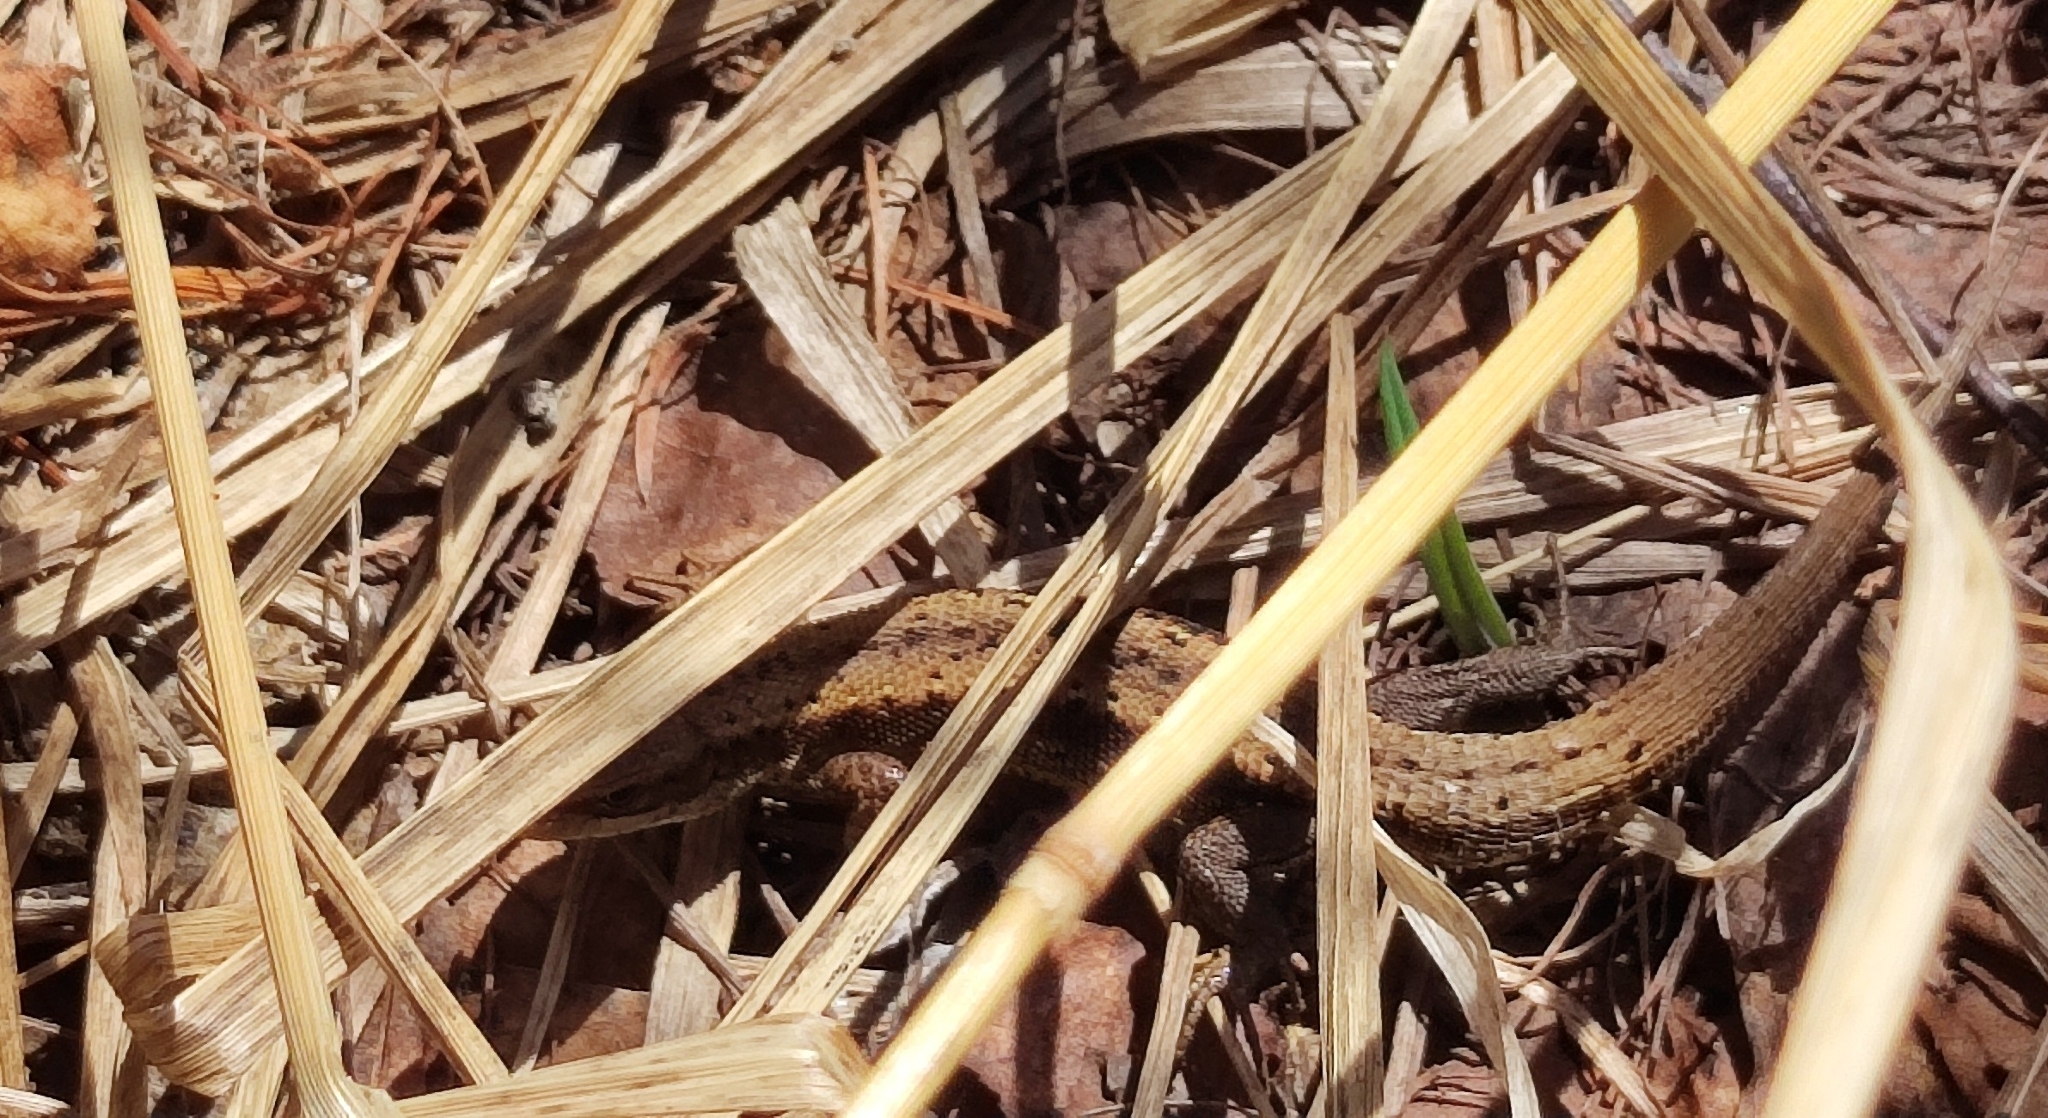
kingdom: Animalia
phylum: Chordata
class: Squamata
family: Lacertidae
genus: Zootoca
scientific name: Zootoca vivipara
